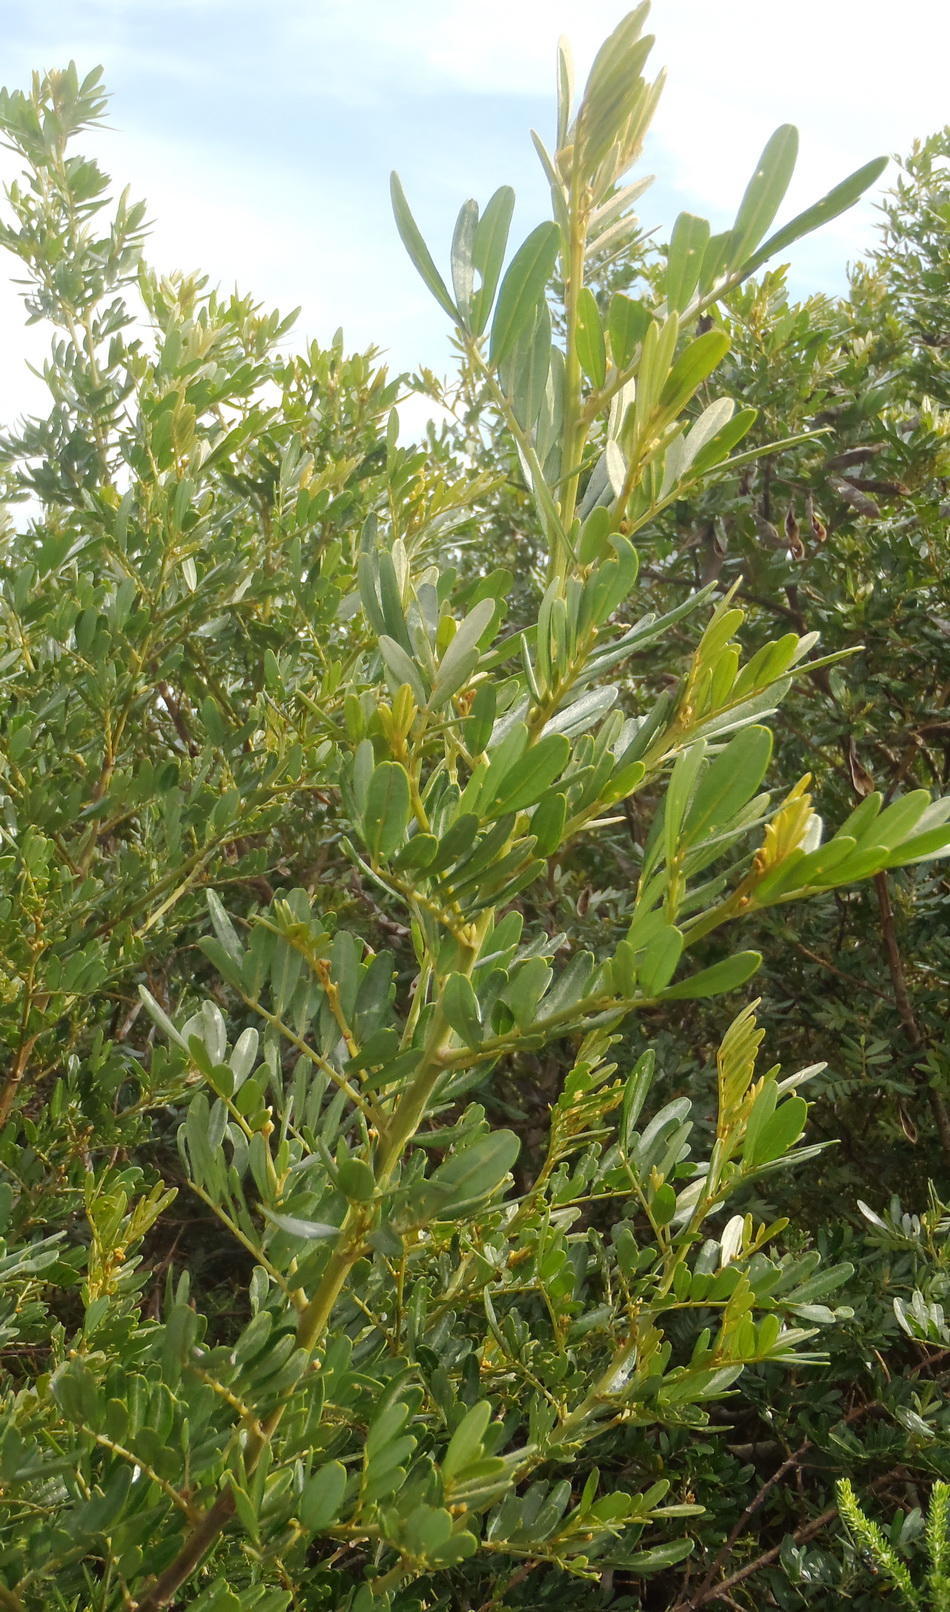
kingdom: Plantae
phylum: Tracheophyta
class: Magnoliopsida
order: Fabales
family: Fabaceae
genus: Virgilia
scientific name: Virgilia divaricata
